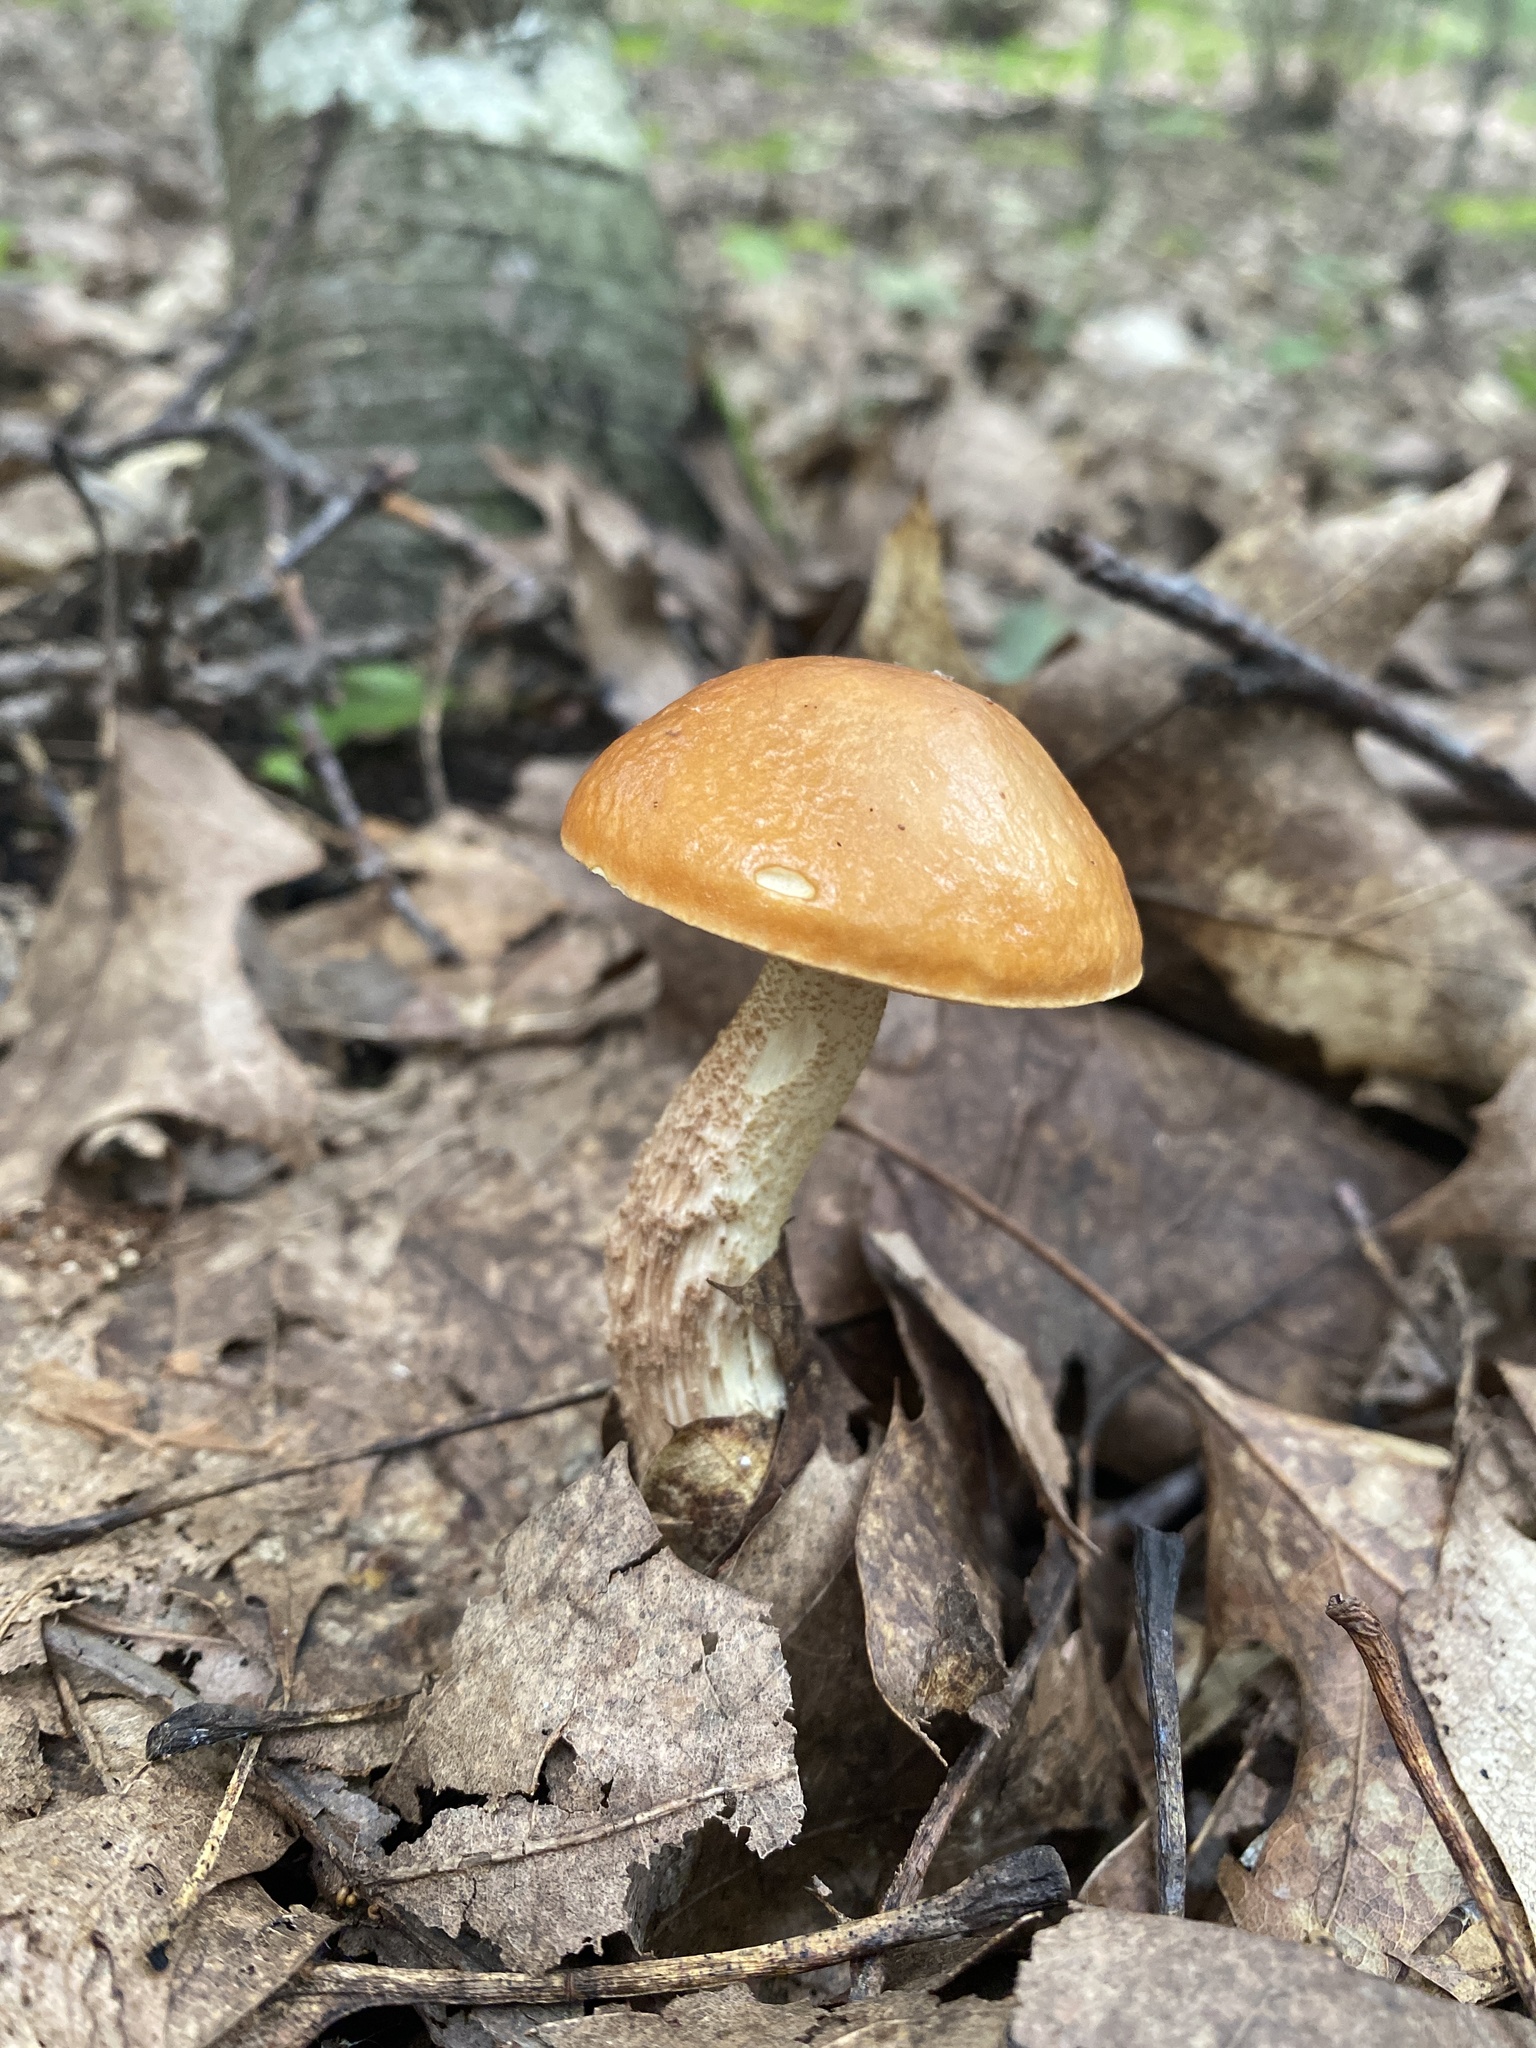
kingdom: Fungi
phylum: Basidiomycota
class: Agaricomycetes
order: Boletales
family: Boletaceae
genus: Leccinum
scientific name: Leccinum longicurvipes
